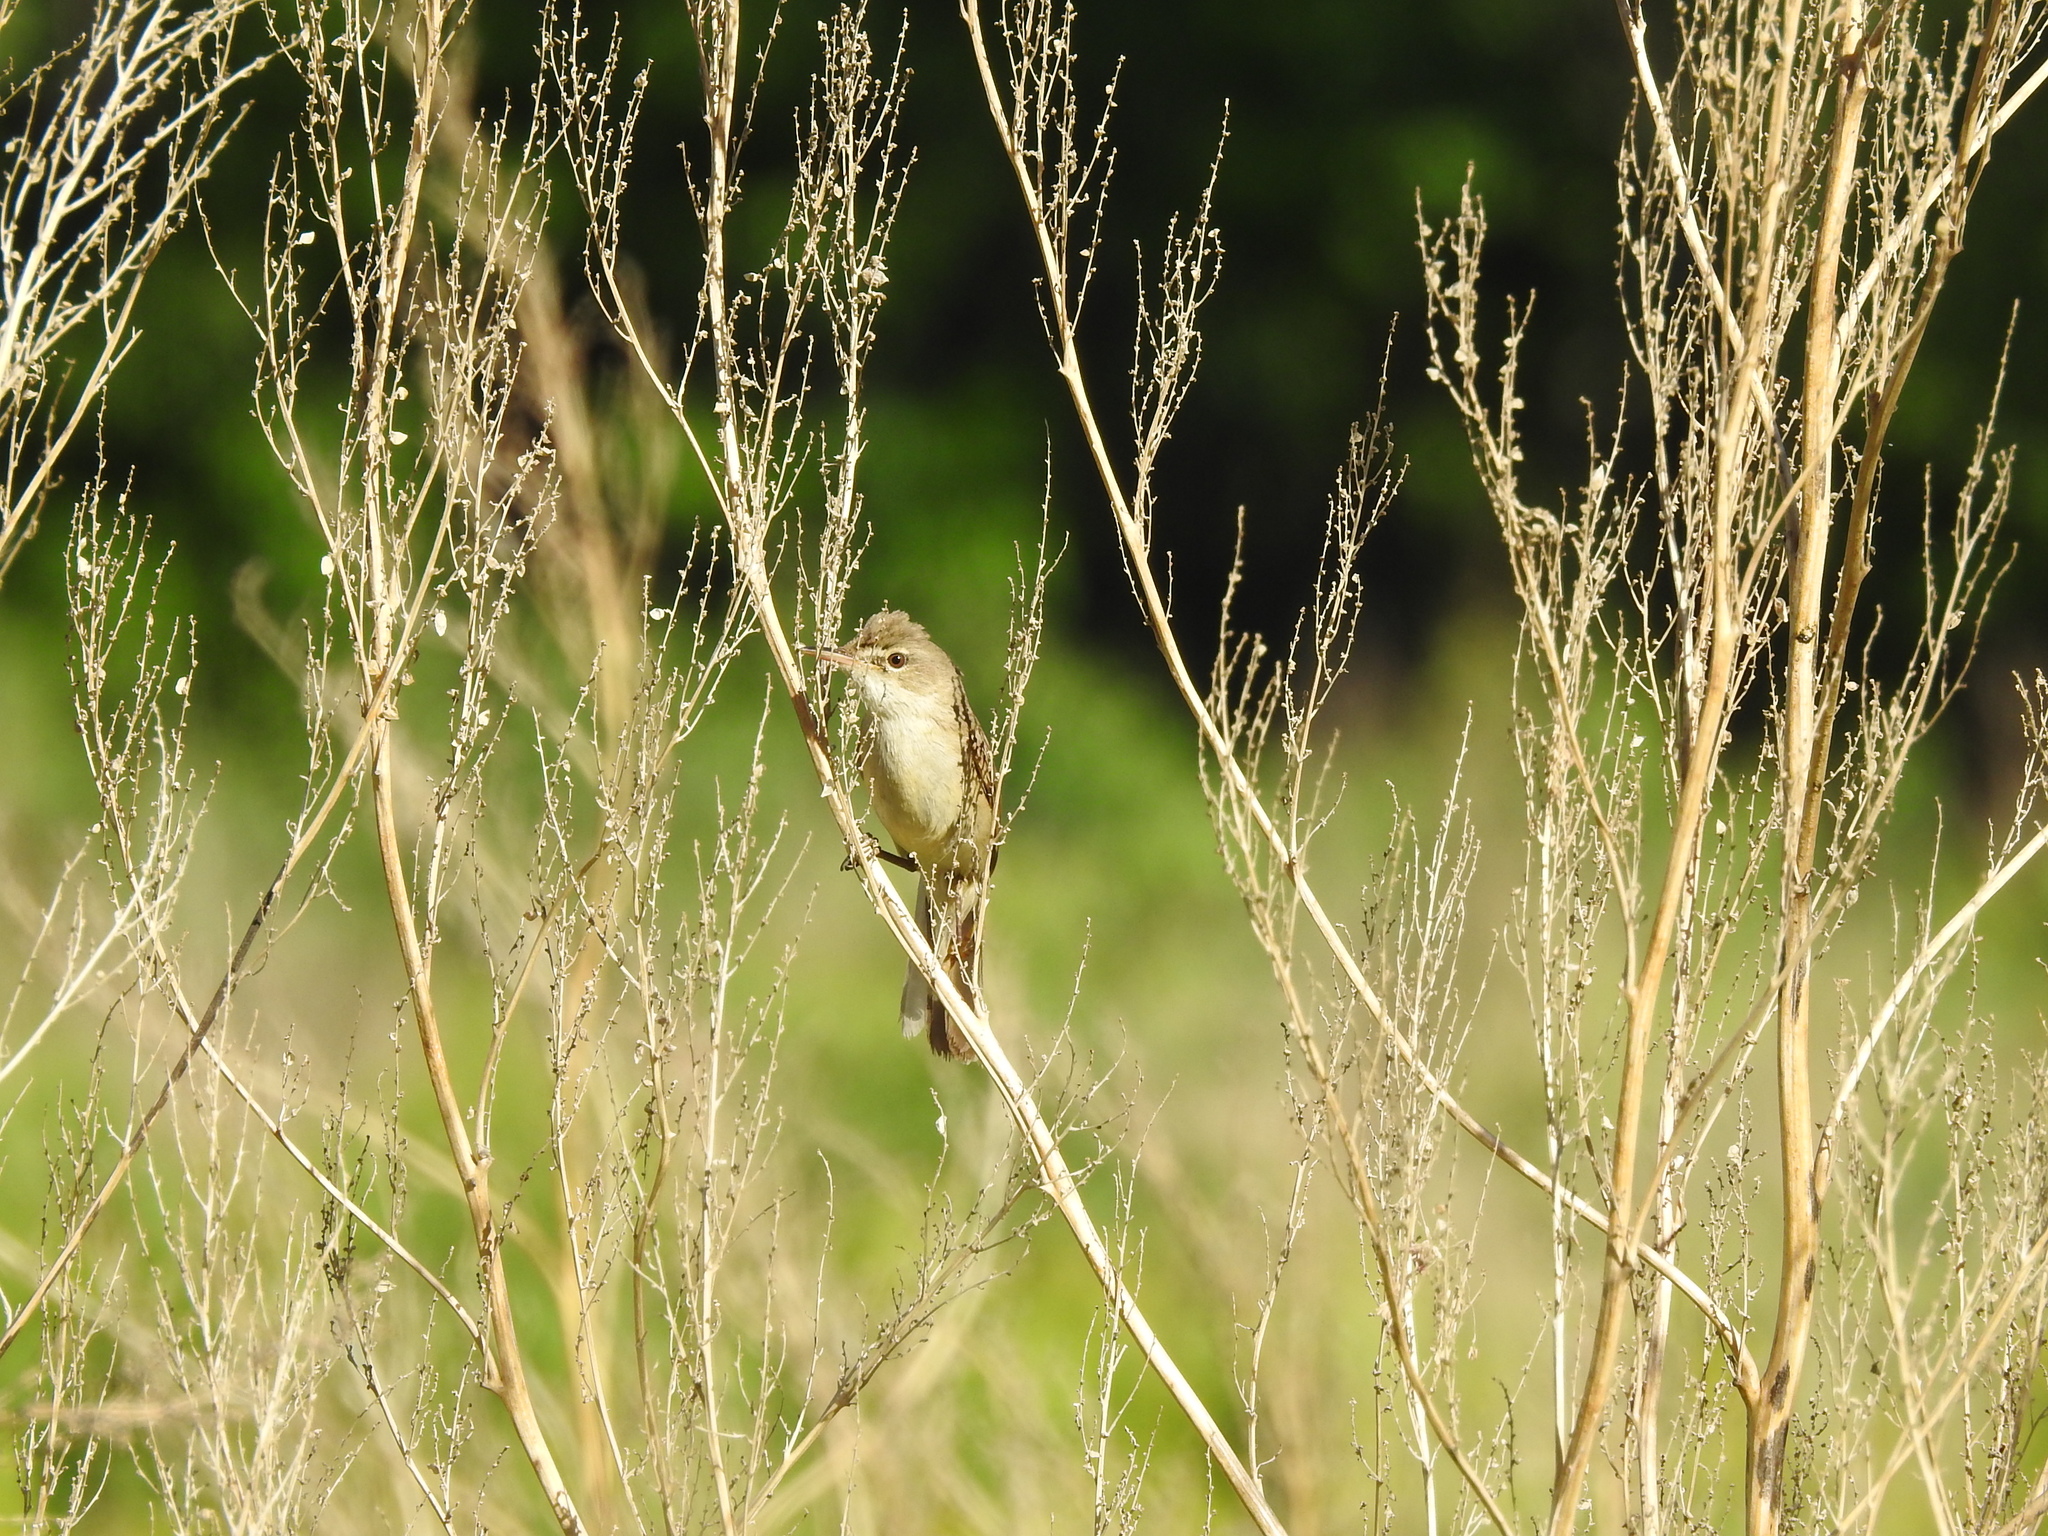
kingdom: Animalia
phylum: Chordata
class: Aves
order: Passeriformes
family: Acrocephalidae
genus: Acrocephalus
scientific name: Acrocephalus dumetorum
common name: Blyth's reed warbler
